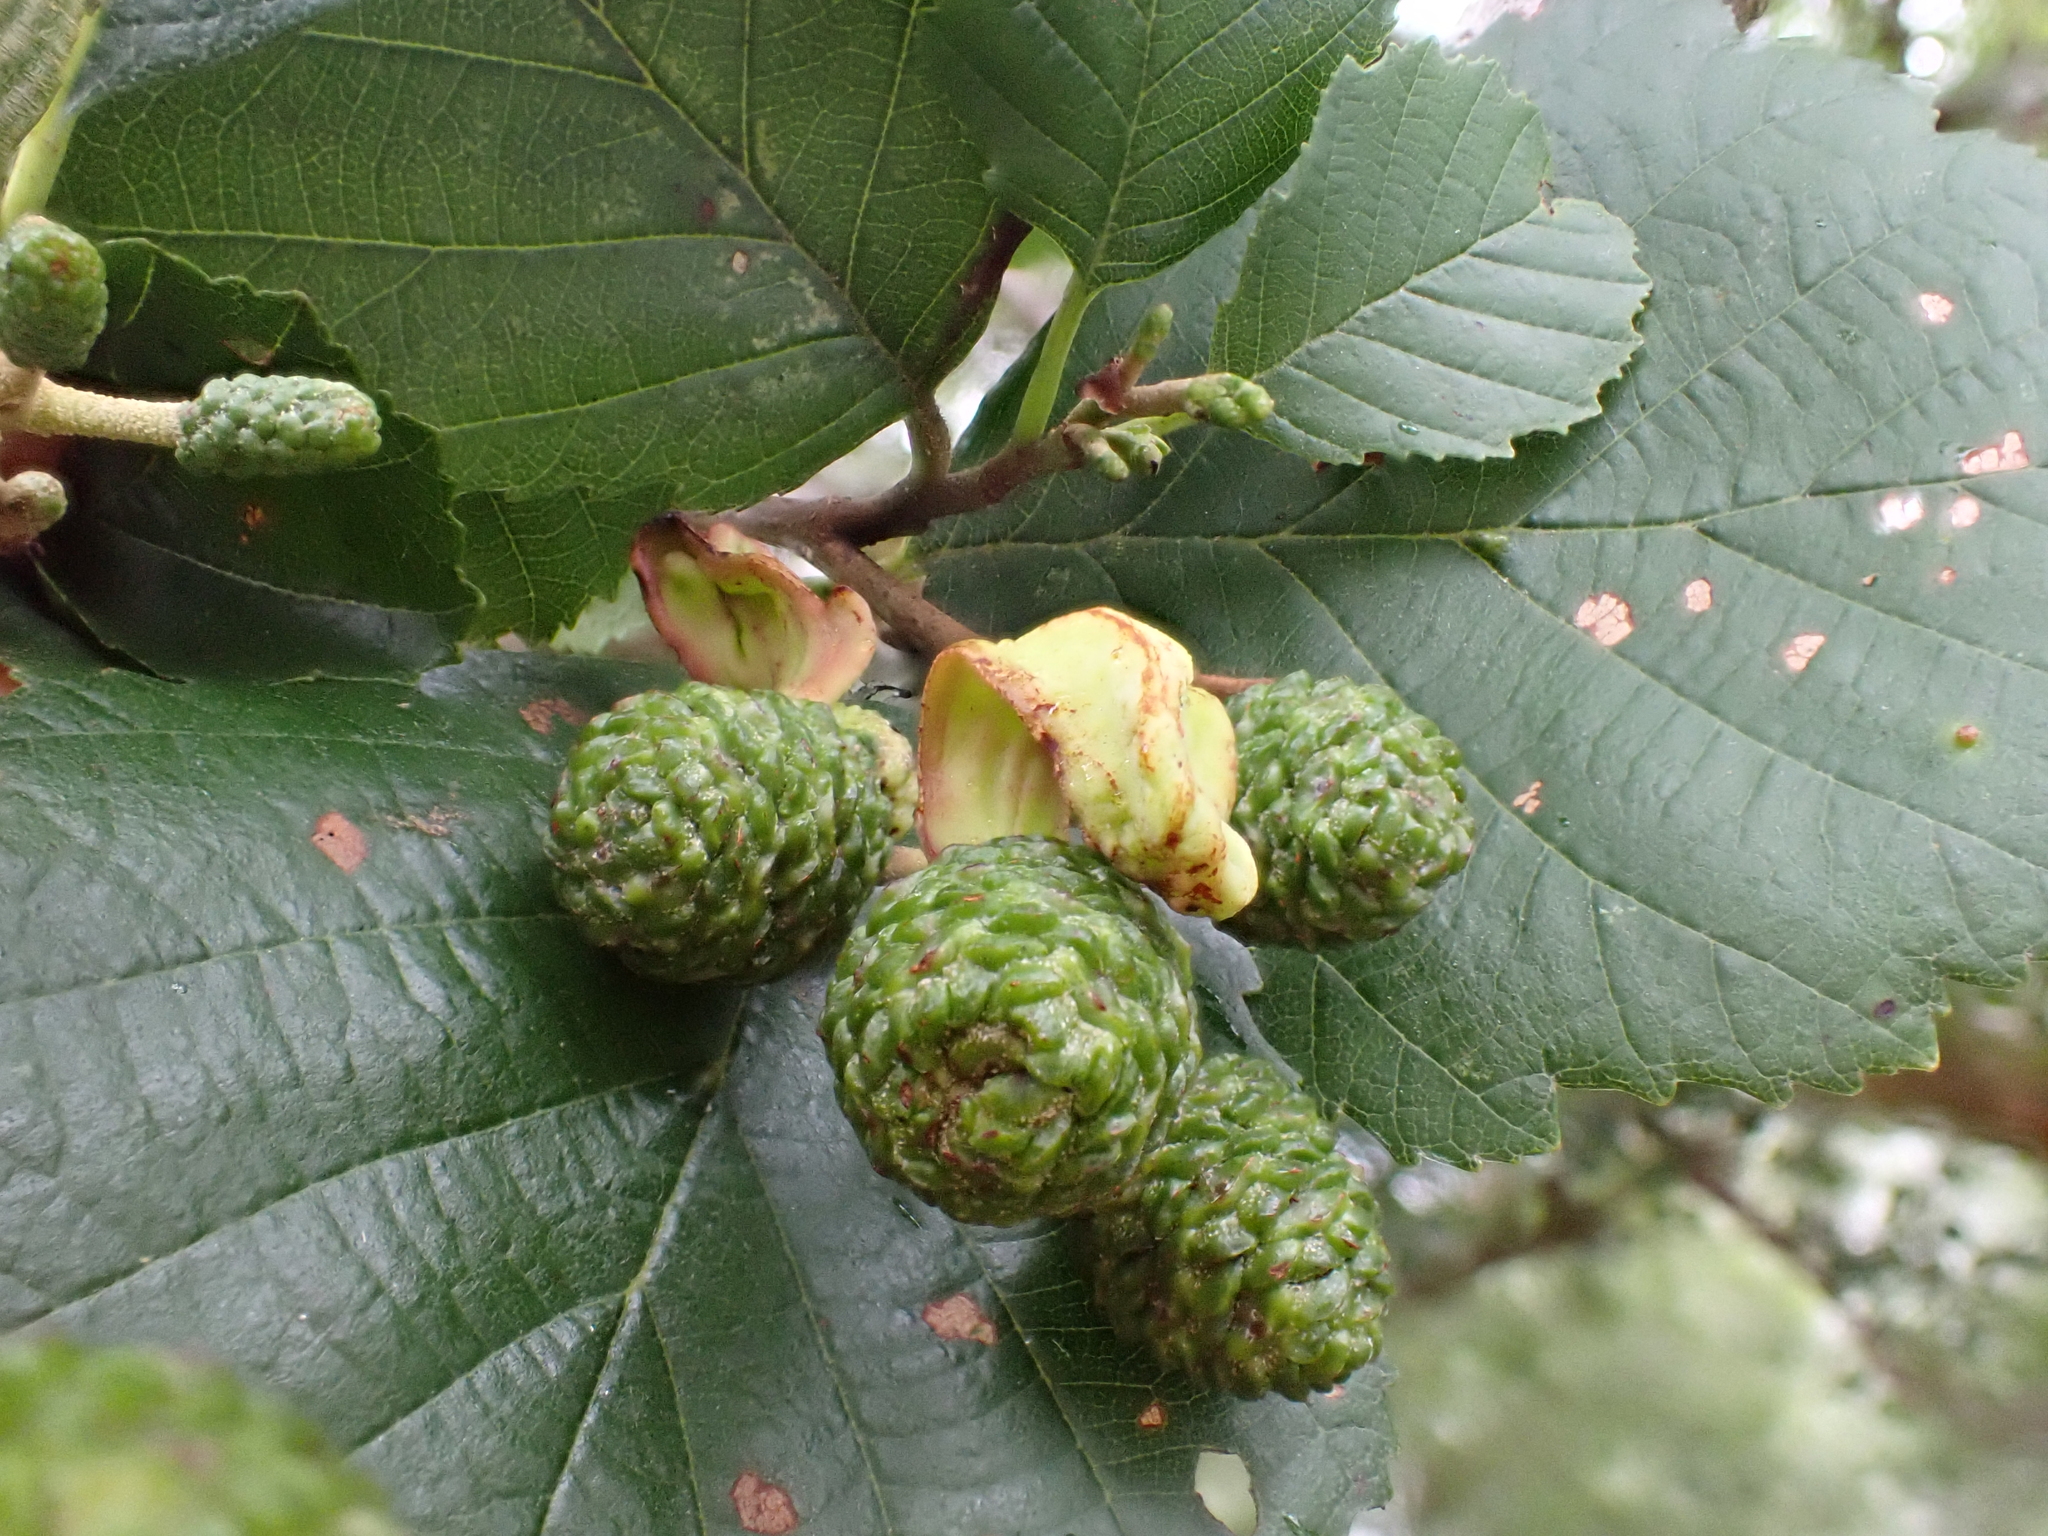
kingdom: Fungi
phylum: Ascomycota
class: Taphrinomycetes
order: Taphrinales
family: Taphrinaceae
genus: Taphrina
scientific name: Taphrina alni
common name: Alder tongue
